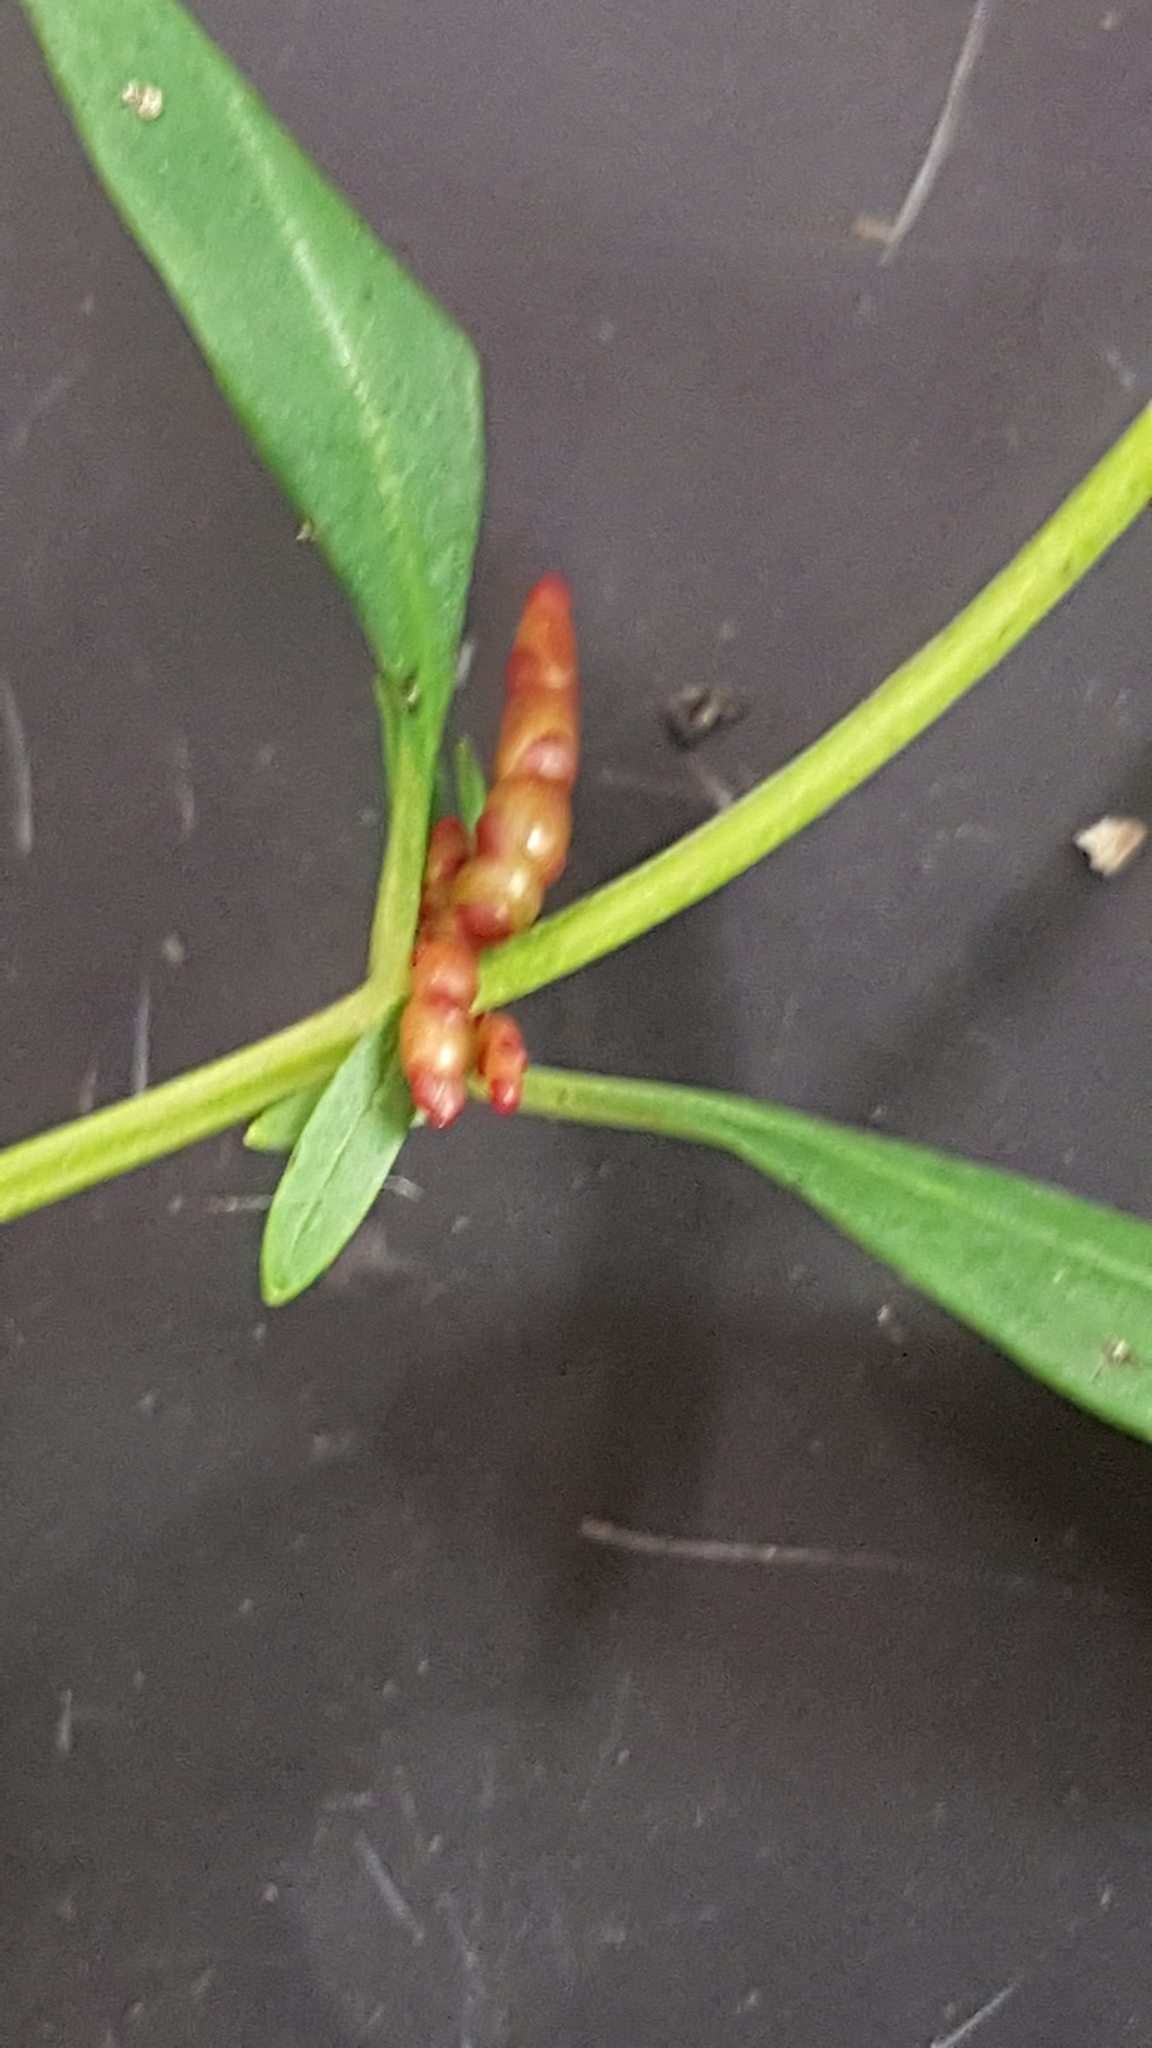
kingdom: Plantae
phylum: Tracheophyta
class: Magnoliopsida
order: Ericales
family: Primulaceae
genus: Lysimachia
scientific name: Lysimachia terrestris
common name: Lake loosestrife
